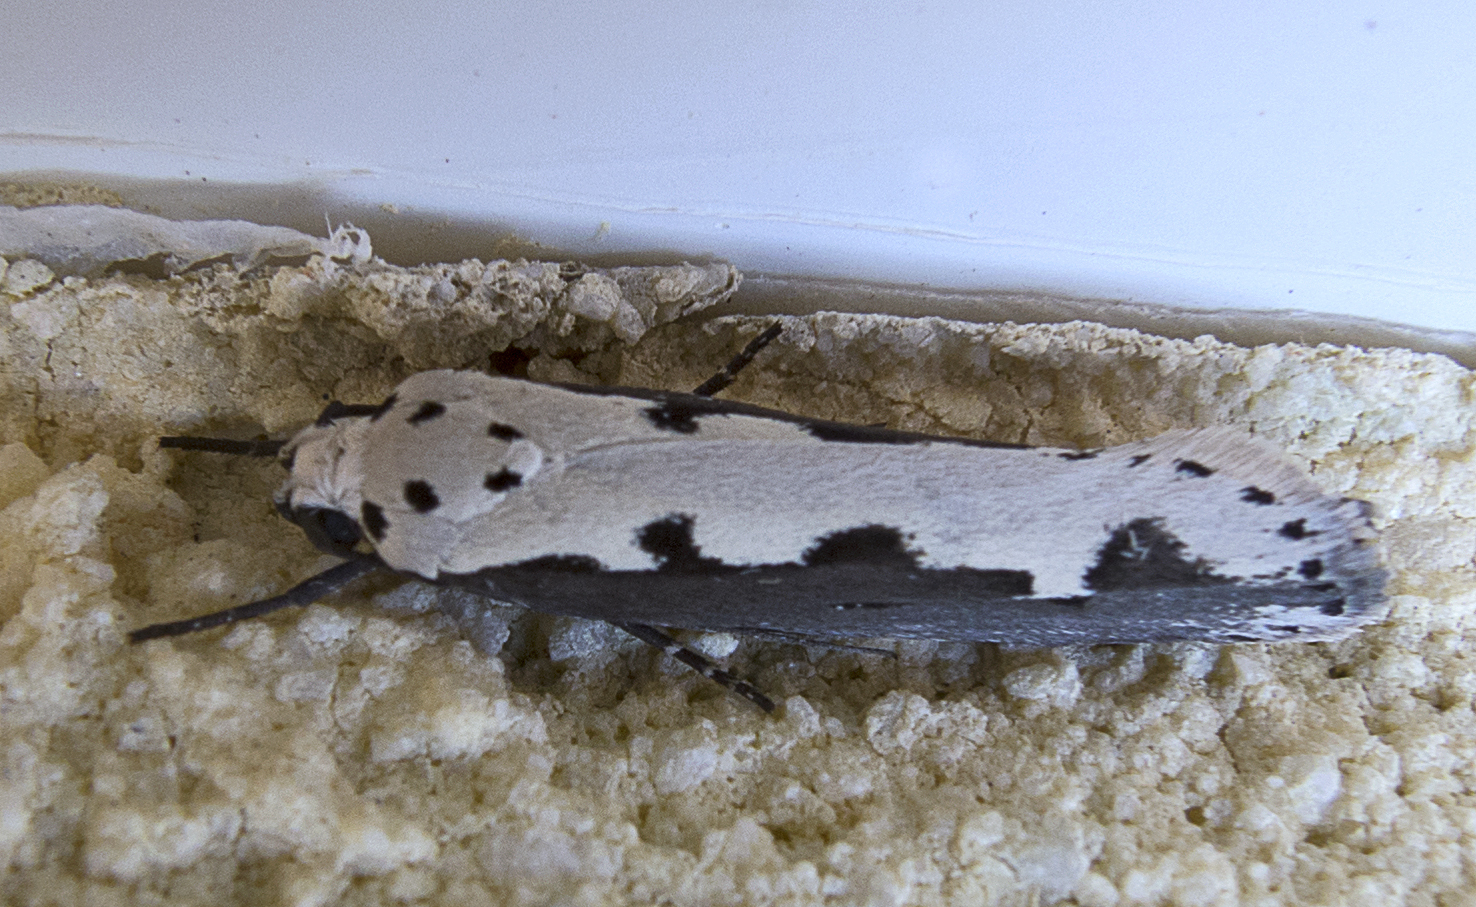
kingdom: Animalia
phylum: Arthropoda
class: Insecta
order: Lepidoptera
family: Ethmiidae
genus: Ethmia
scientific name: Ethmia bipunctella
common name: Bordered ermel
